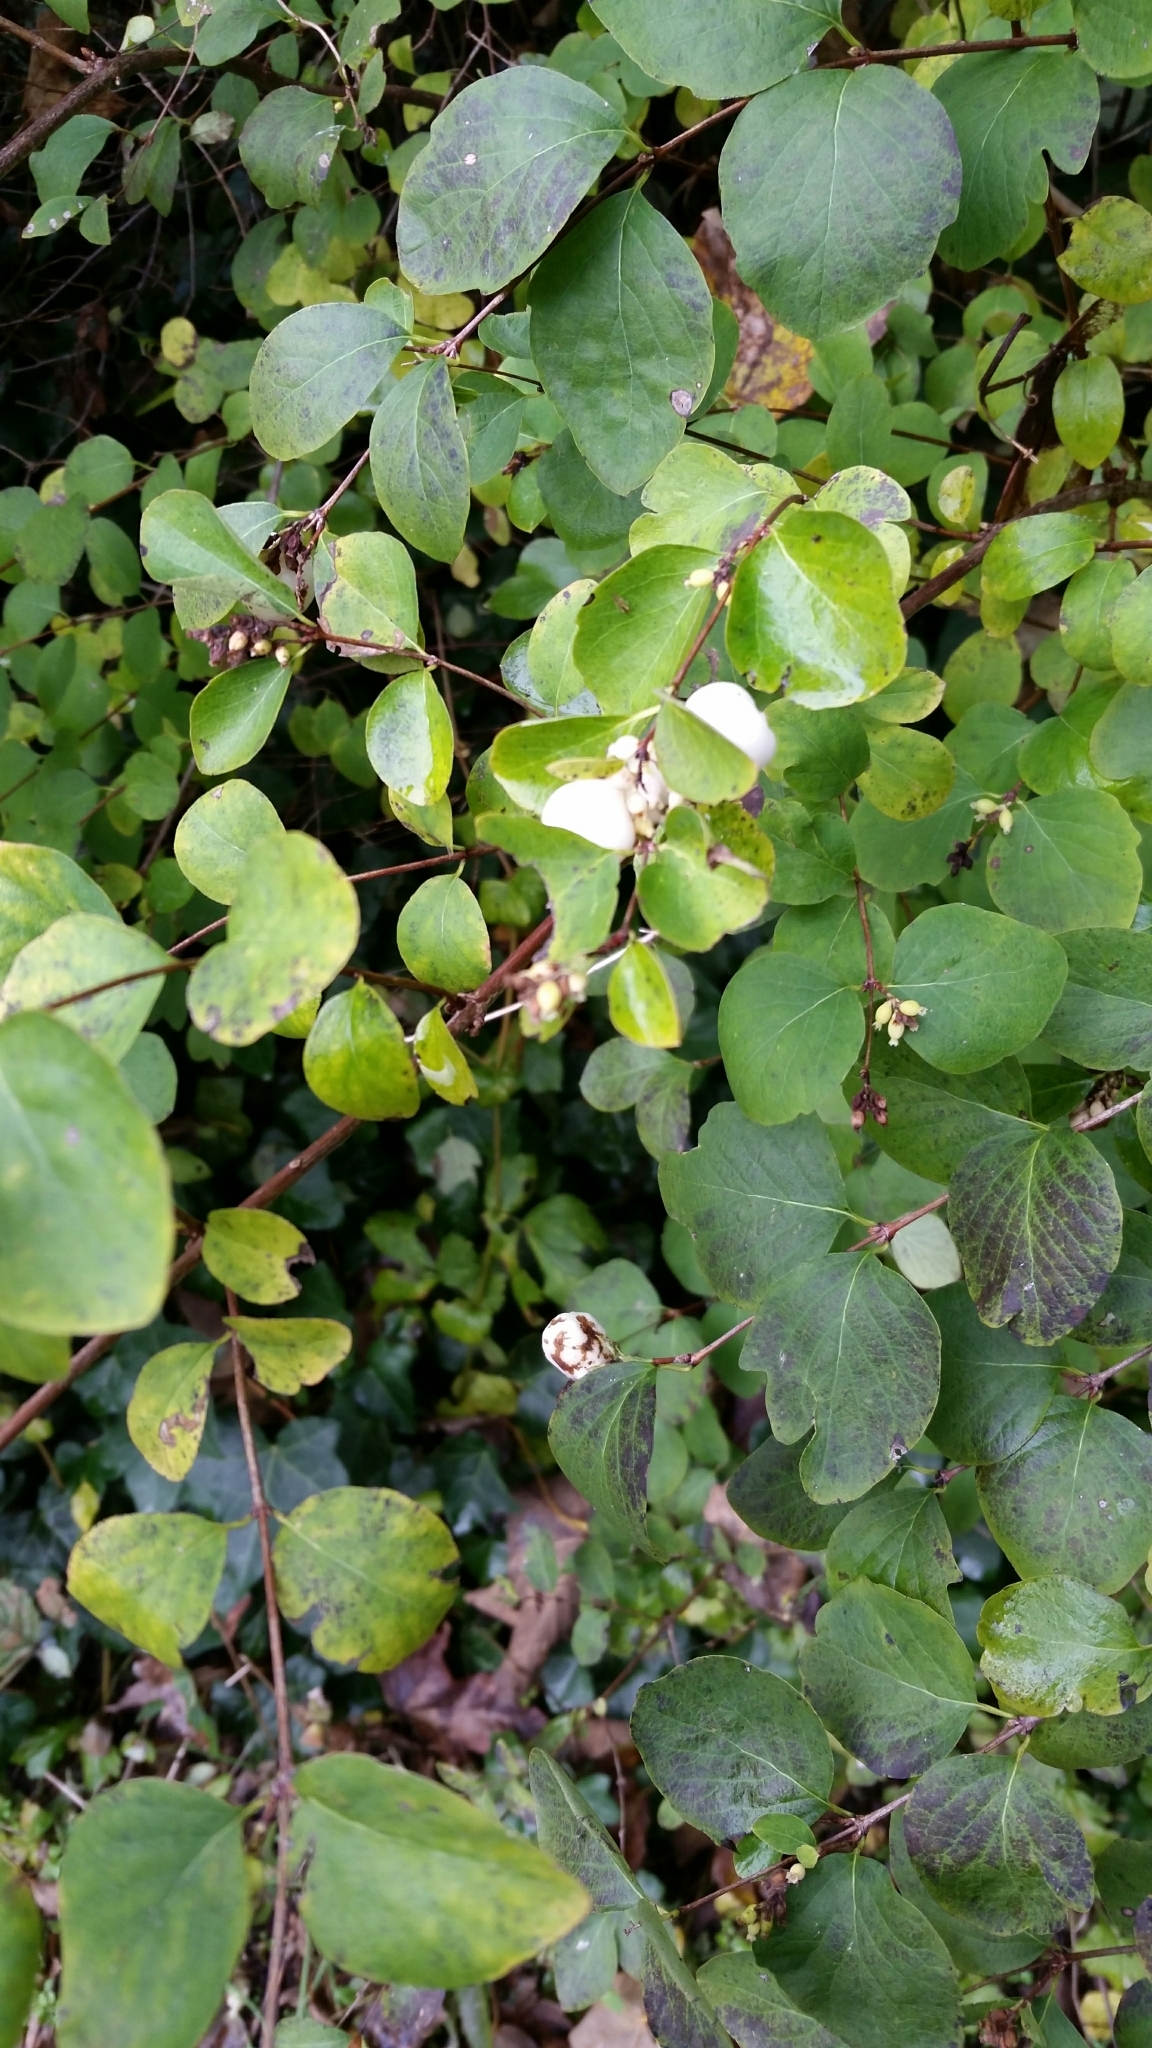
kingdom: Plantae
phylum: Tracheophyta
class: Magnoliopsida
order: Dipsacales
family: Caprifoliaceae
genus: Symphoricarpos
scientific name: Symphoricarpos albus
